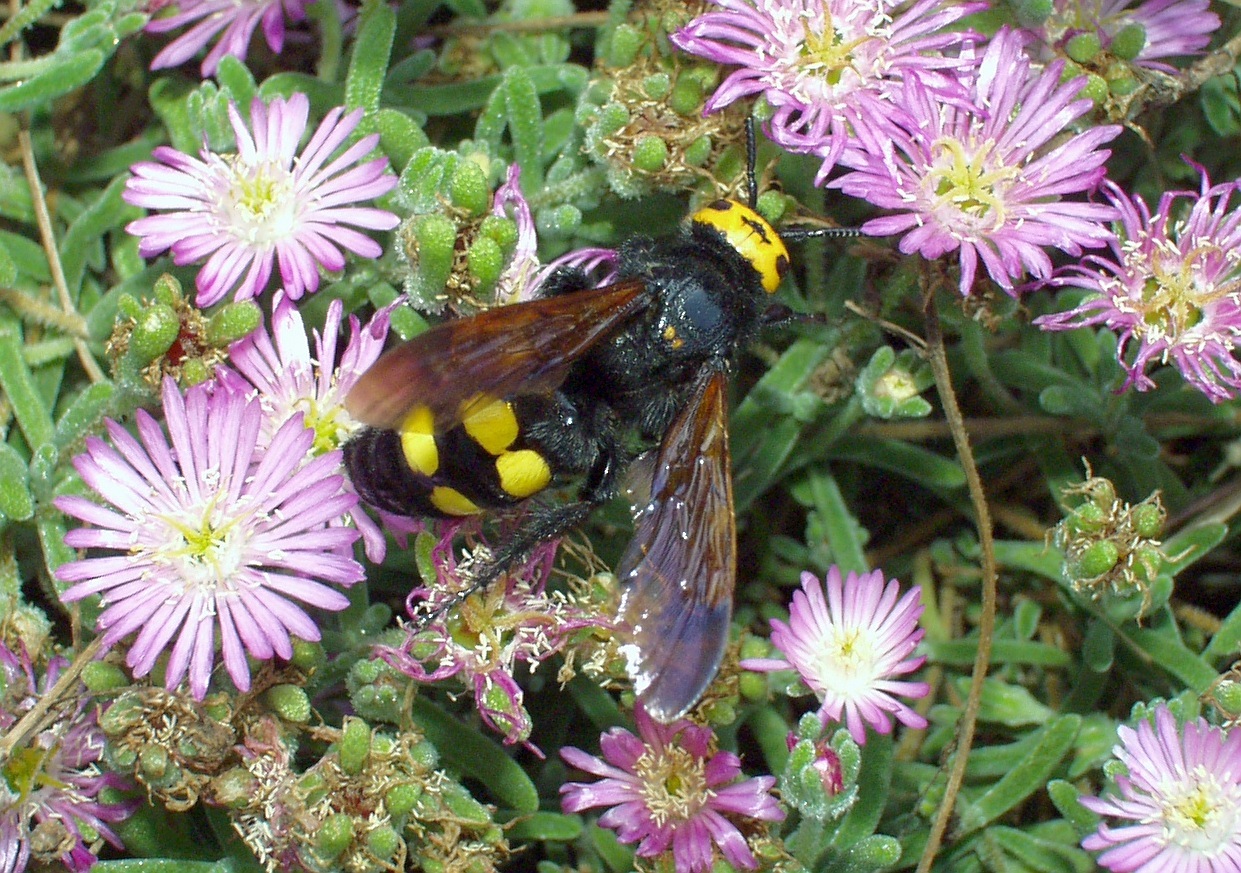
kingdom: Animalia
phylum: Arthropoda
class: Insecta
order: Hymenoptera
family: Scoliidae
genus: Megascolia
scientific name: Megascolia maculata
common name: Mammoth wasp
